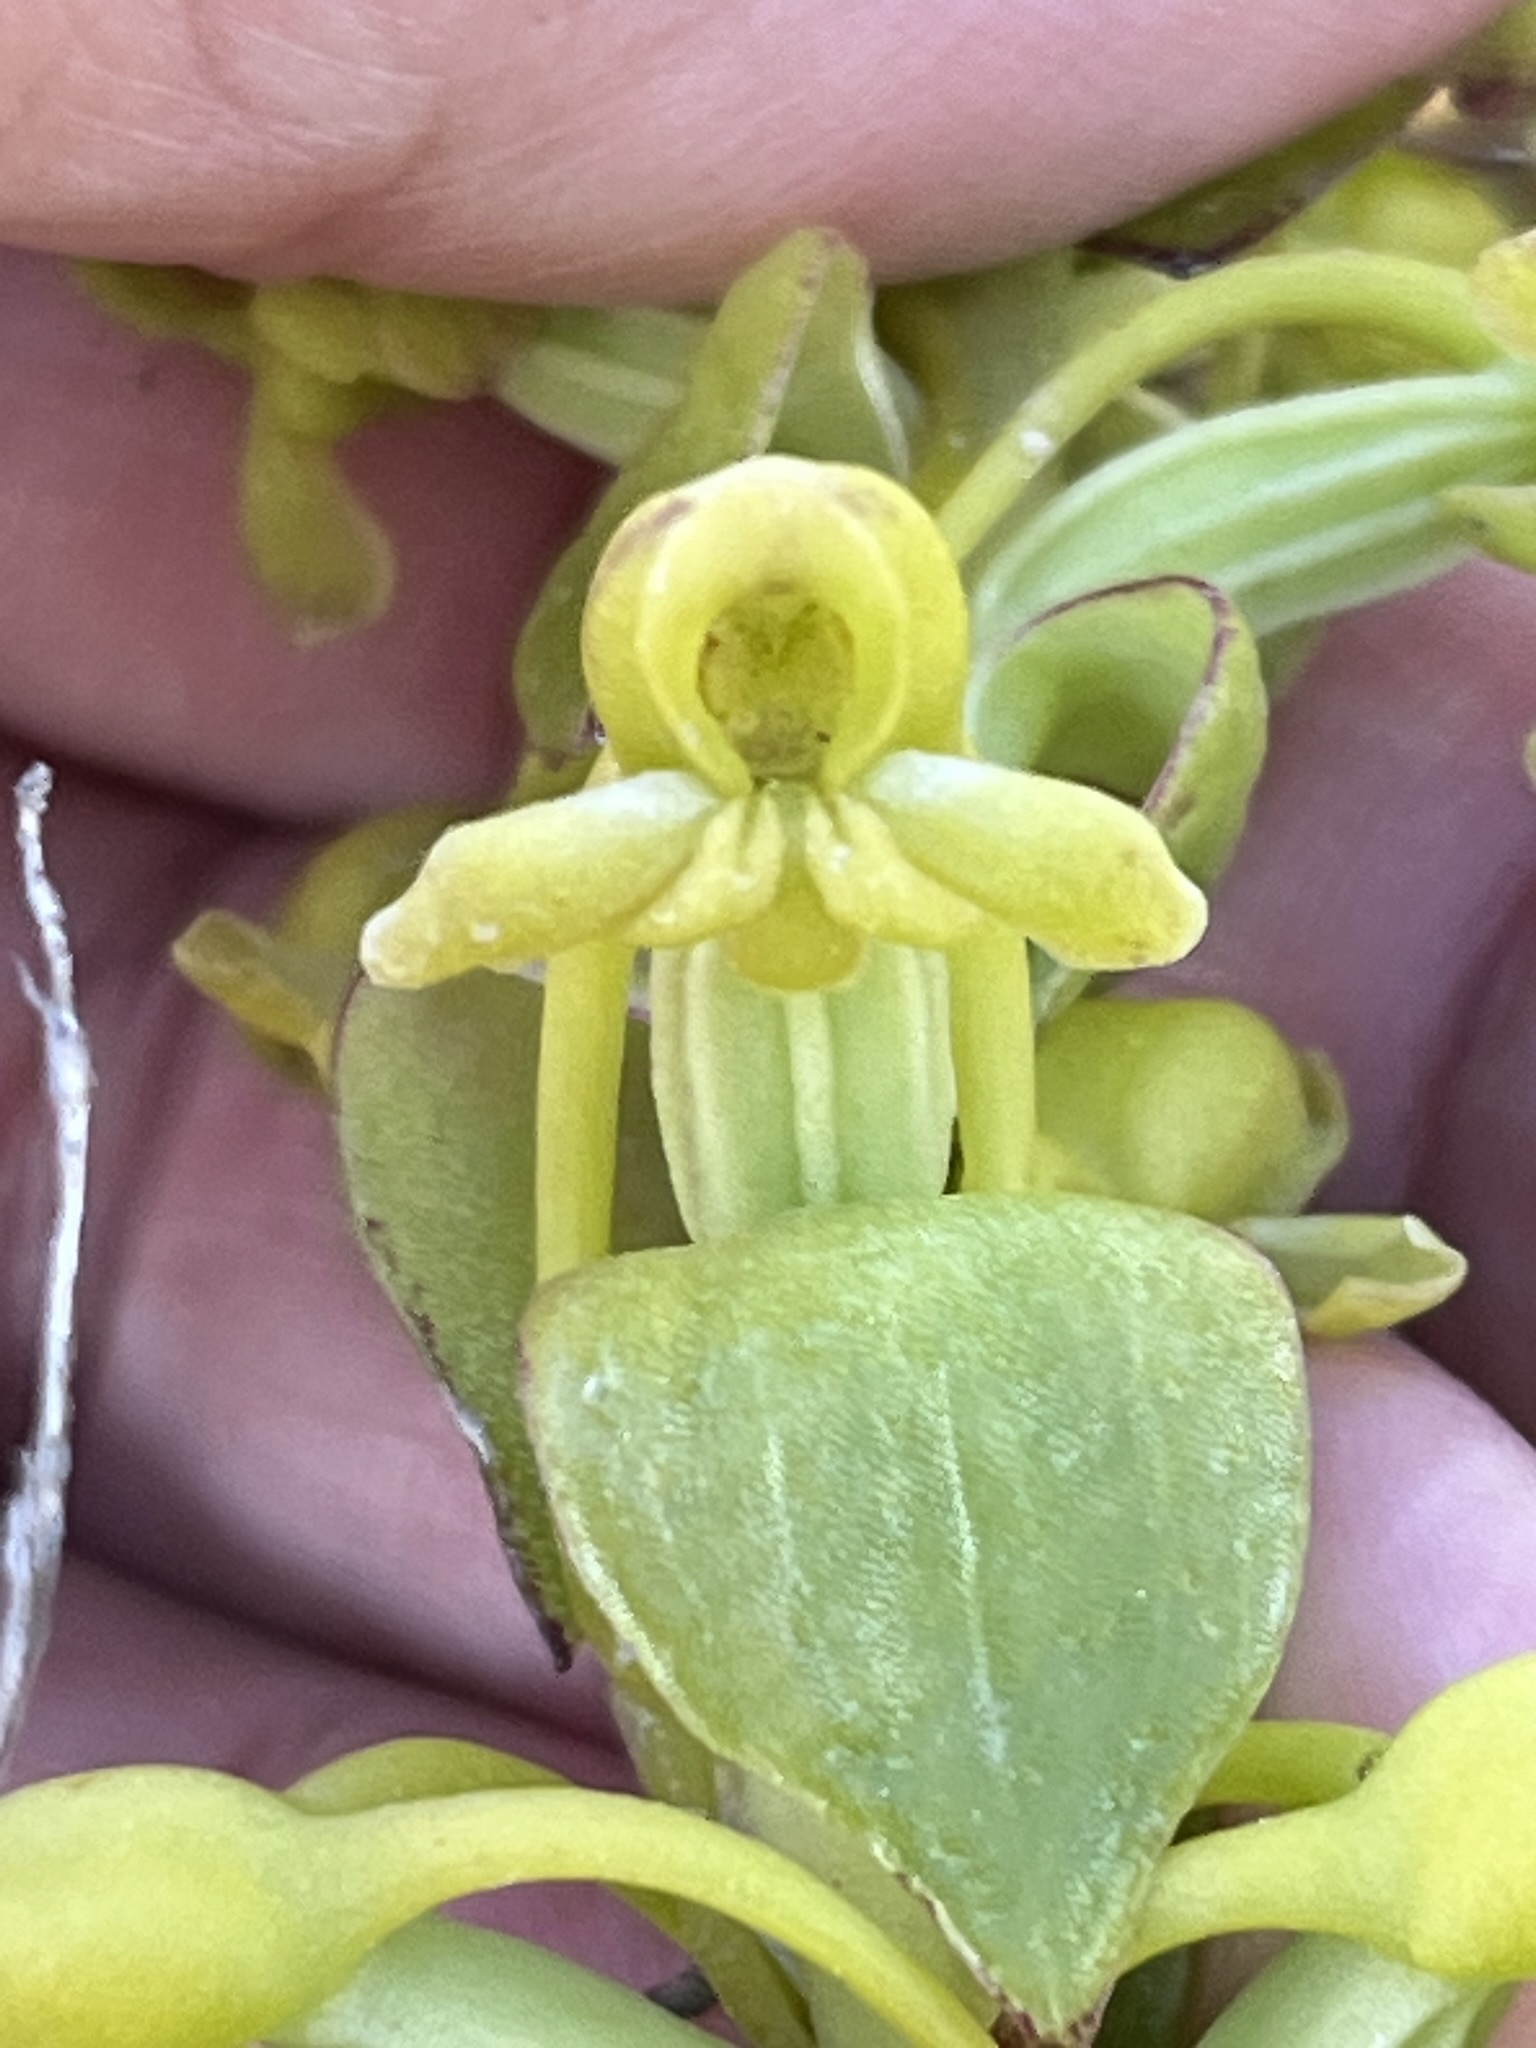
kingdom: Plantae
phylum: Tracheophyta
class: Liliopsida
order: Asparagales
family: Orchidaceae
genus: Satyrium
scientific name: Satyrium odorum
